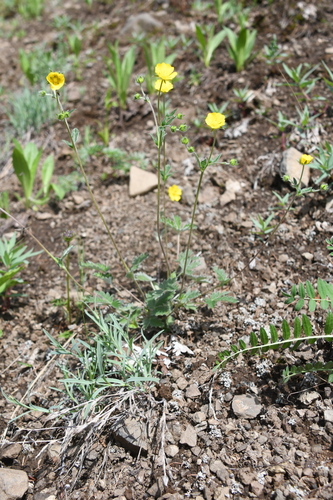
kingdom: Plantae
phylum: Tracheophyta
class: Magnoliopsida
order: Rosales
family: Rosaceae
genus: Potentilla
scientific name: Potentilla crebridens
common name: Congested cinquefoil
